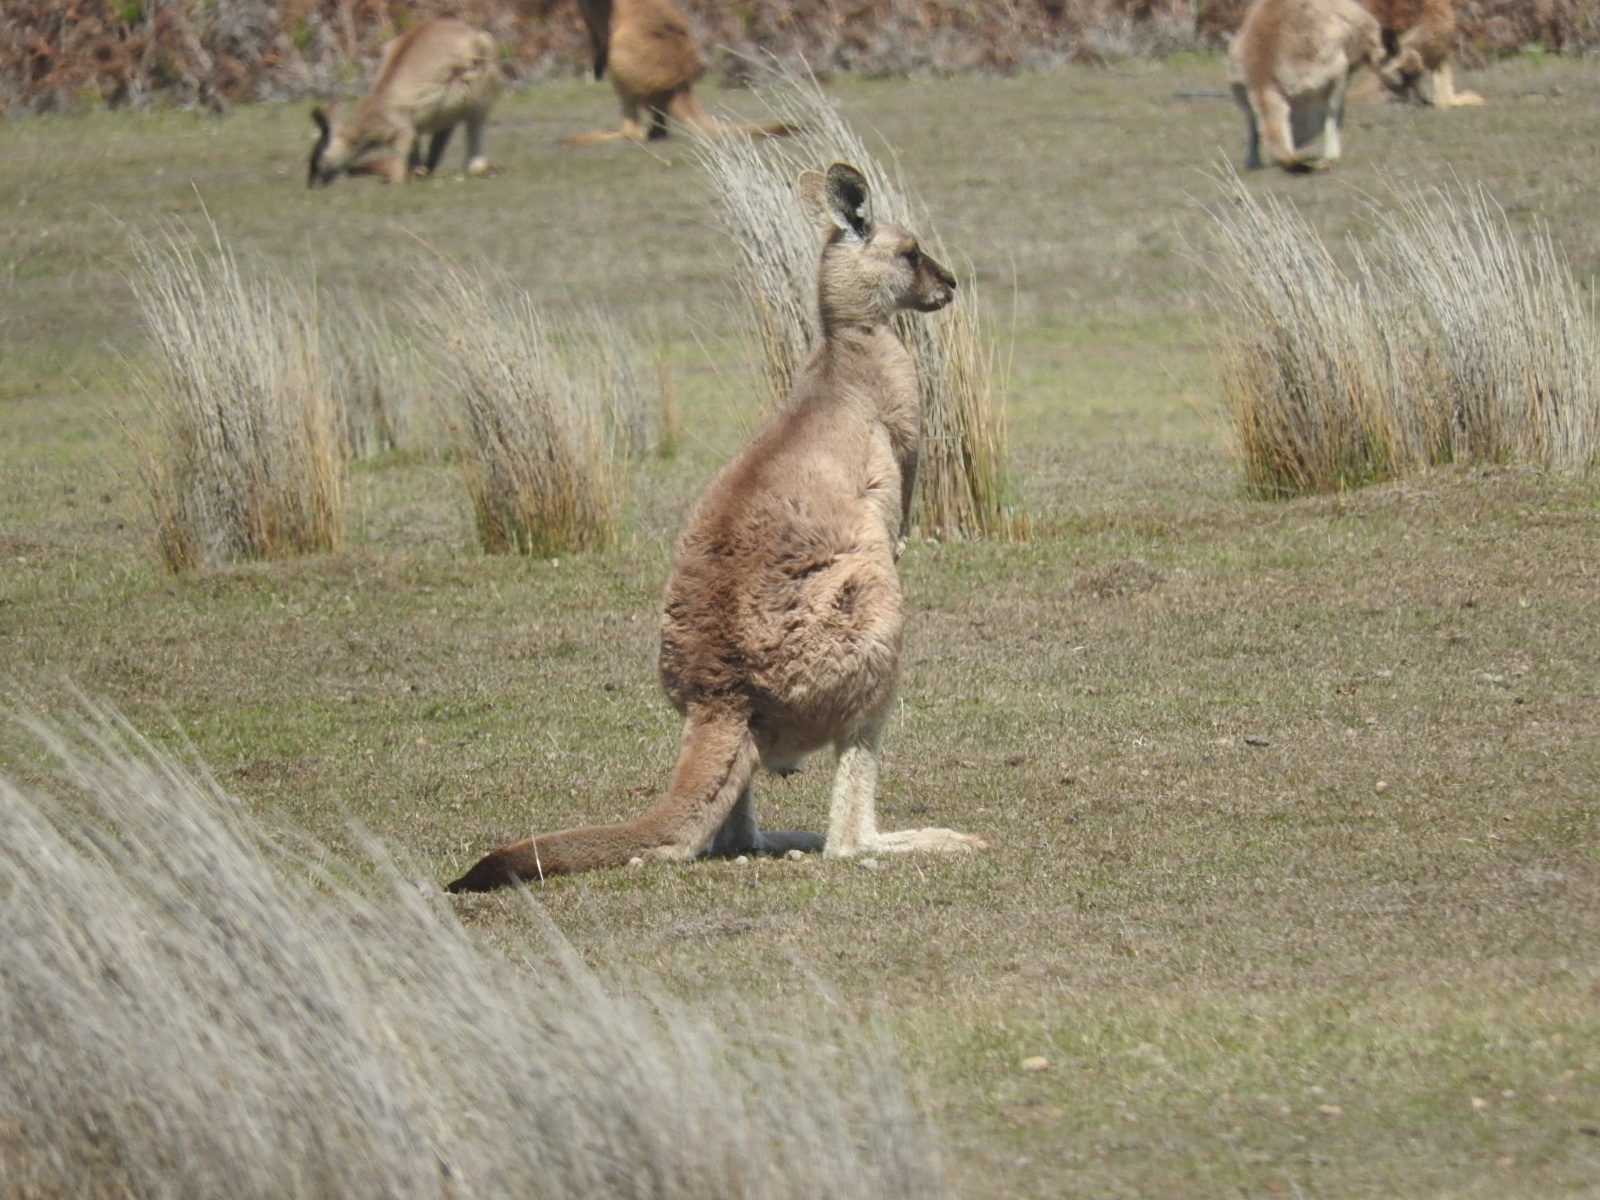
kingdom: Animalia
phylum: Chordata
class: Mammalia
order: Diprotodontia
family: Macropodidae
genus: Macropus
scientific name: Macropus giganteus
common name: Eastern grey kangaroo
